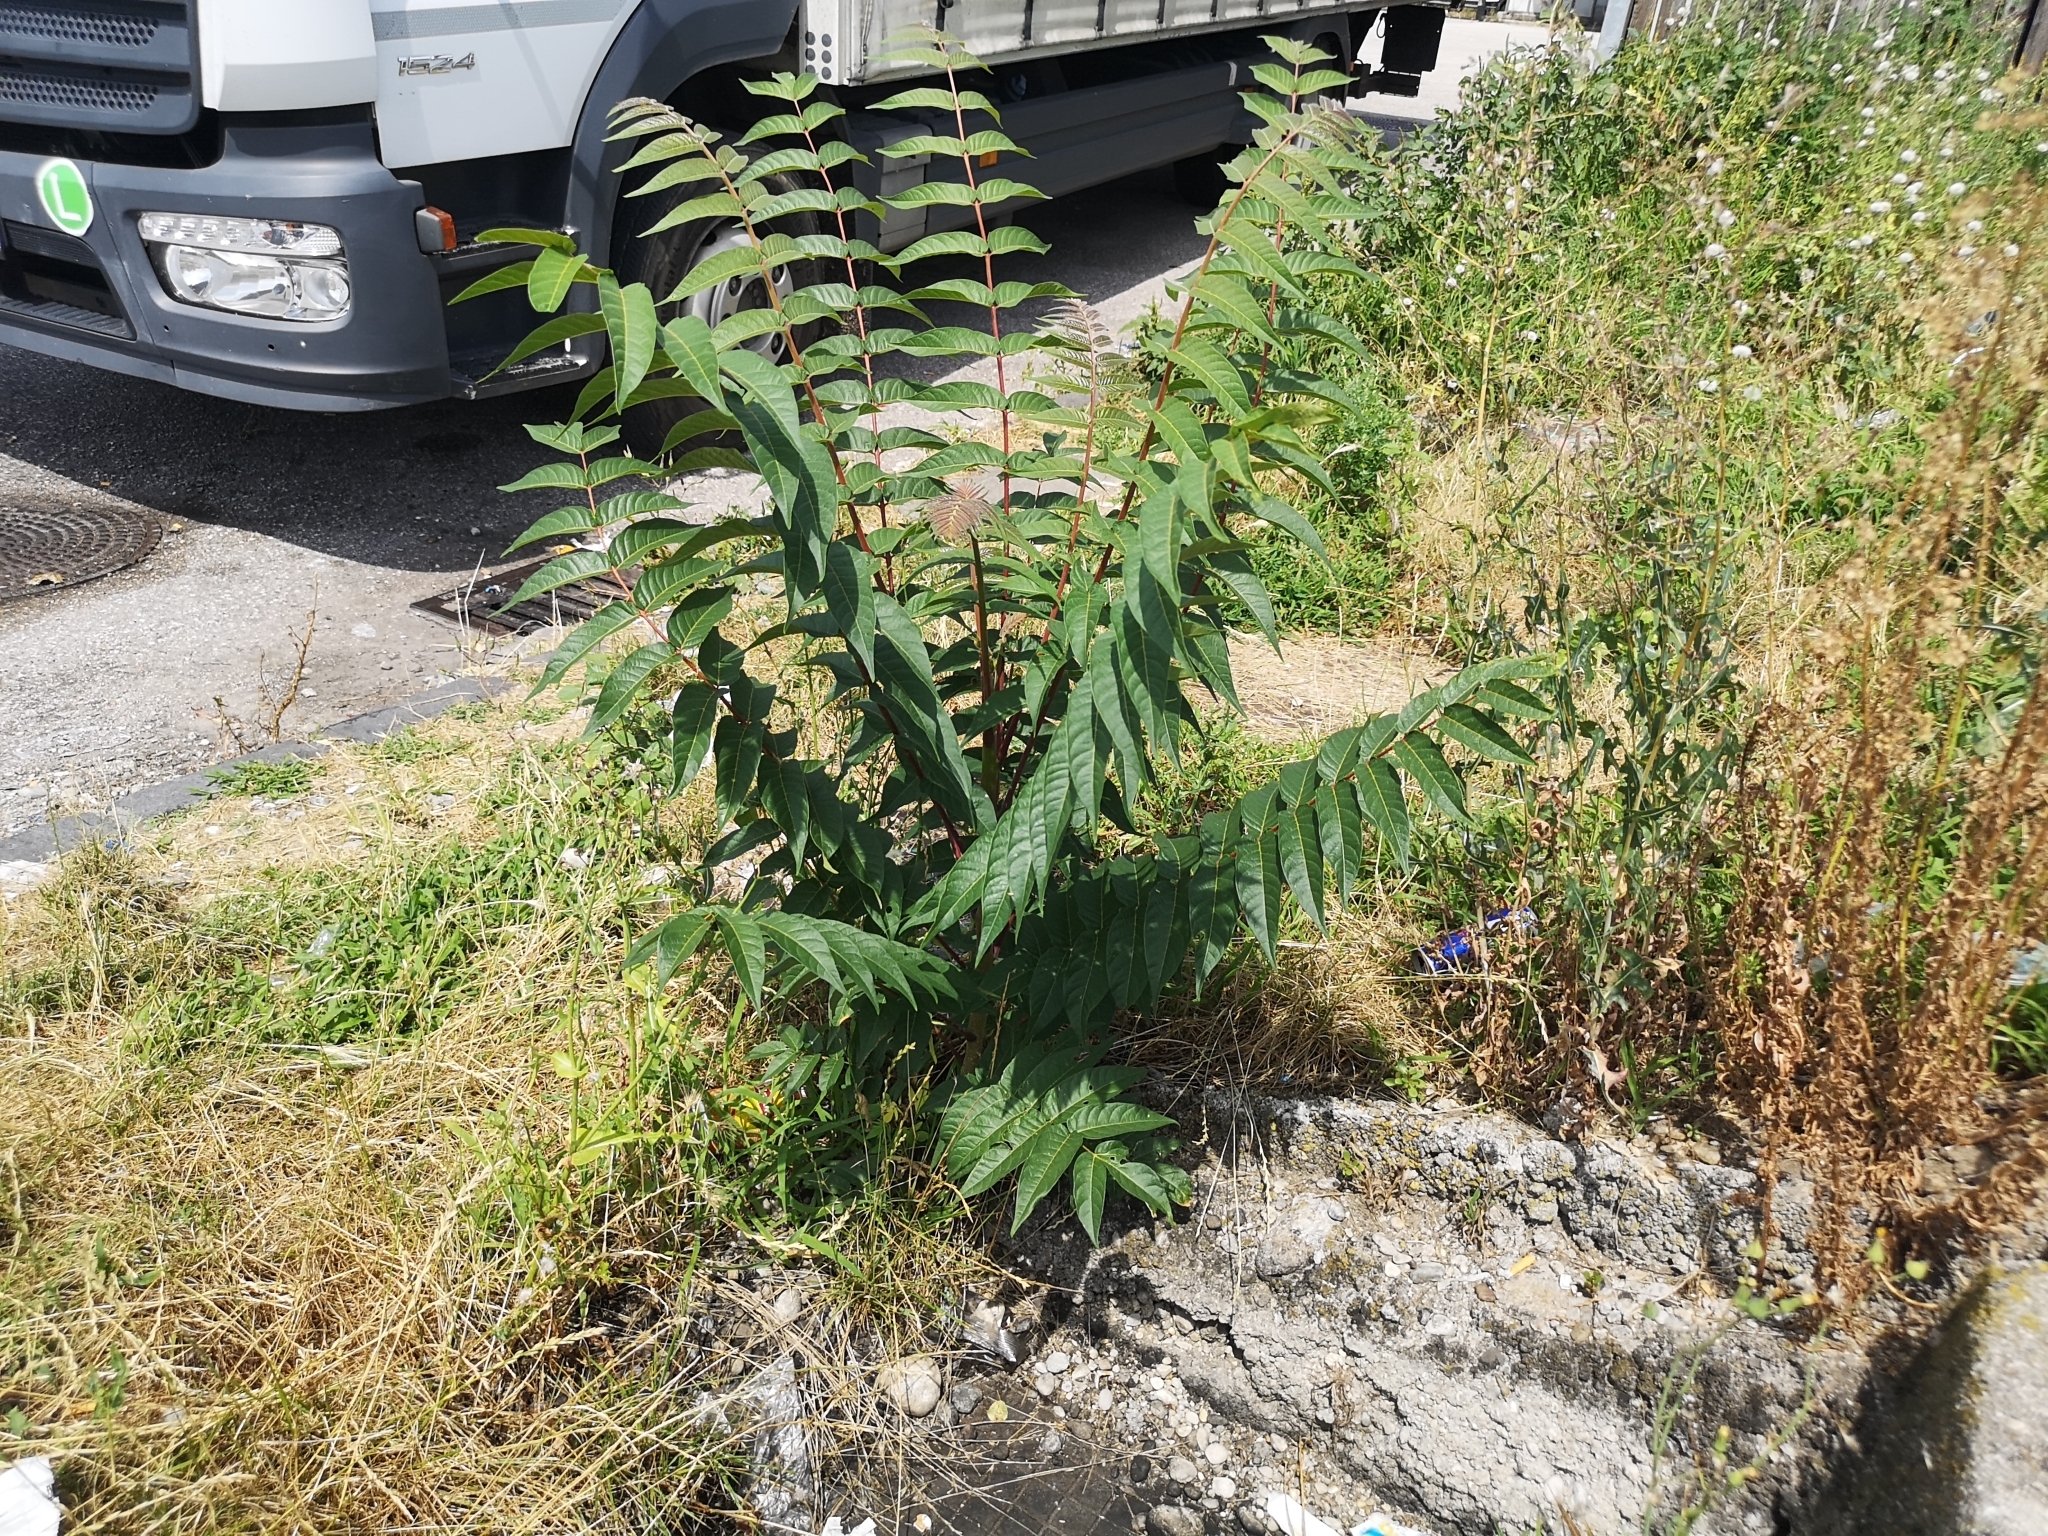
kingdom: Plantae
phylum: Tracheophyta
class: Magnoliopsida
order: Sapindales
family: Simaroubaceae
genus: Ailanthus
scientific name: Ailanthus altissima
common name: Tree-of-heaven
